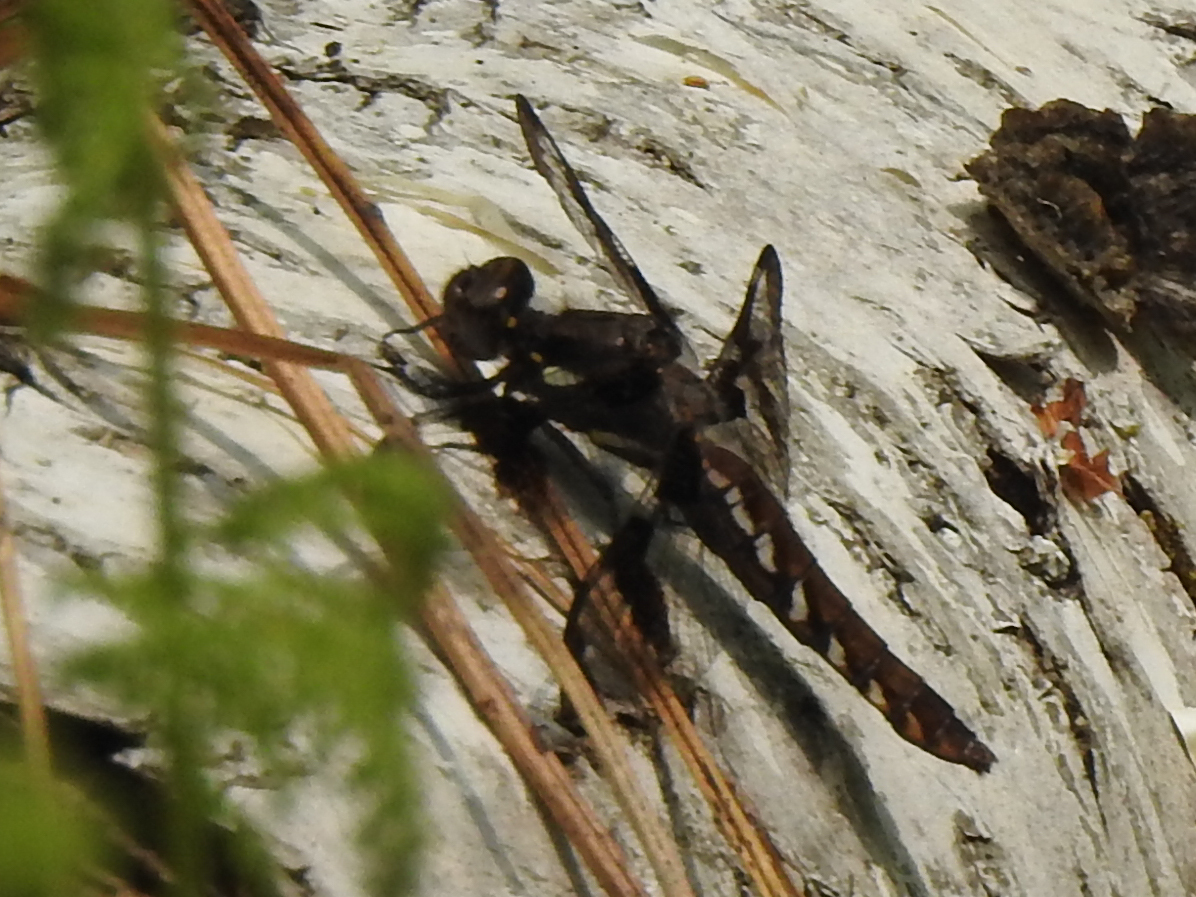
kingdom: Animalia
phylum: Arthropoda
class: Insecta
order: Odonata
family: Libellulidae
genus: Plathemis
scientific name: Plathemis lydia
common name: Common whitetail
